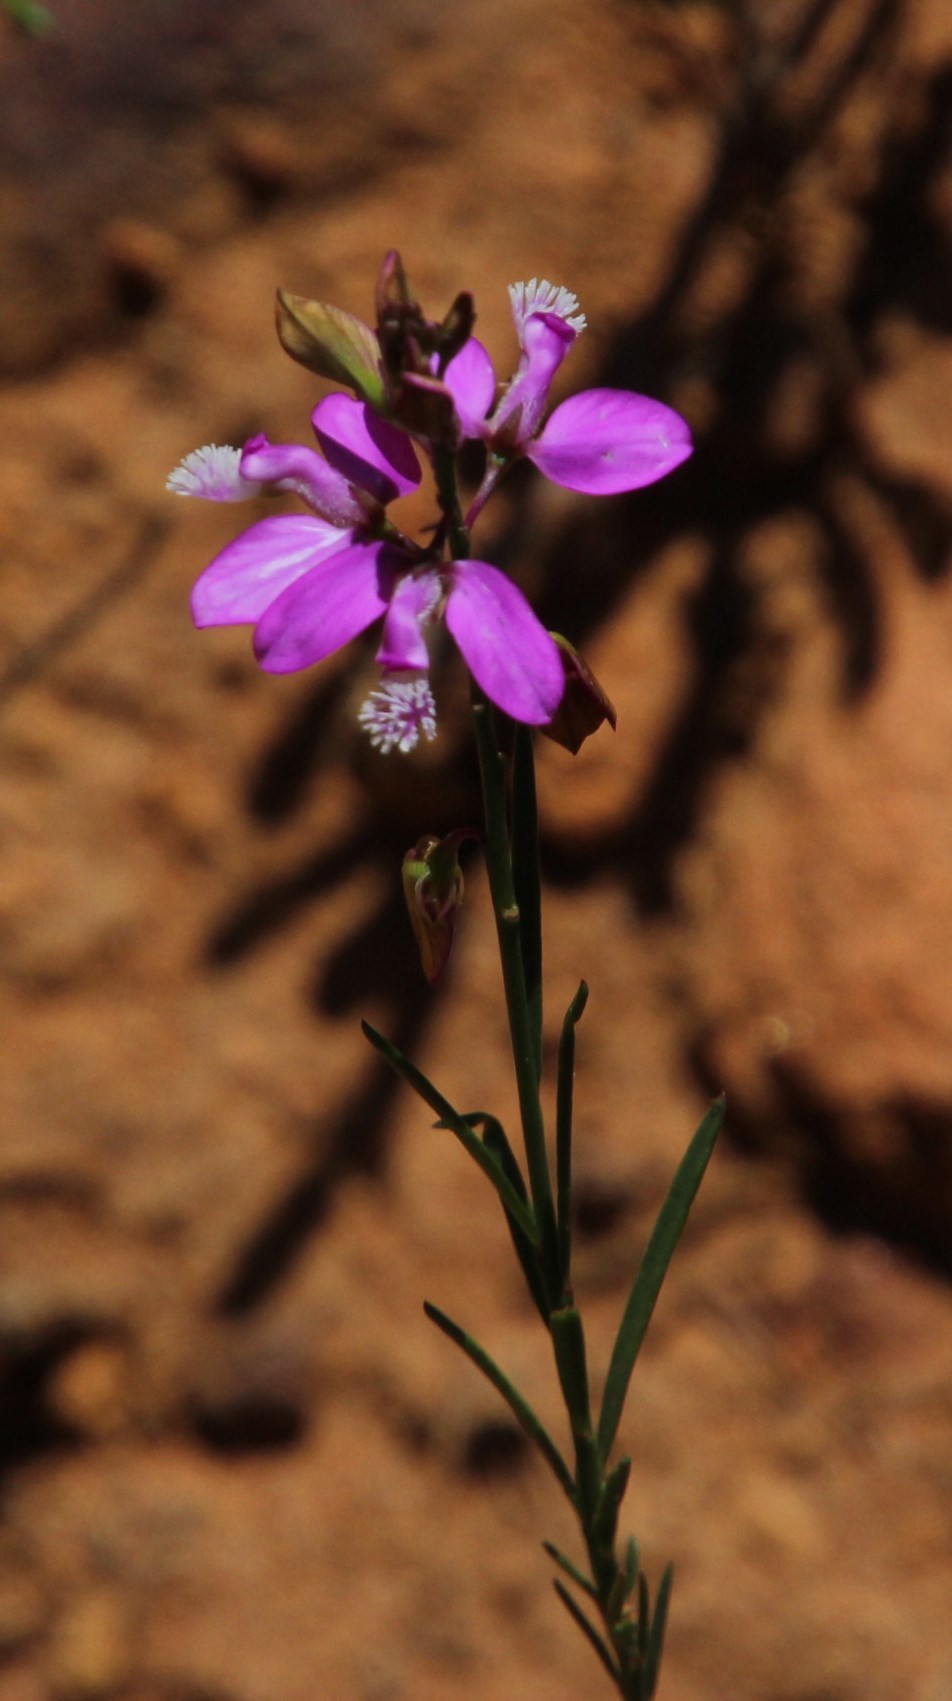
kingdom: Plantae
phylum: Tracheophyta
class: Magnoliopsida
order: Fabales
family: Polygalaceae
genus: Polygala
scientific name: Polygala garcini
